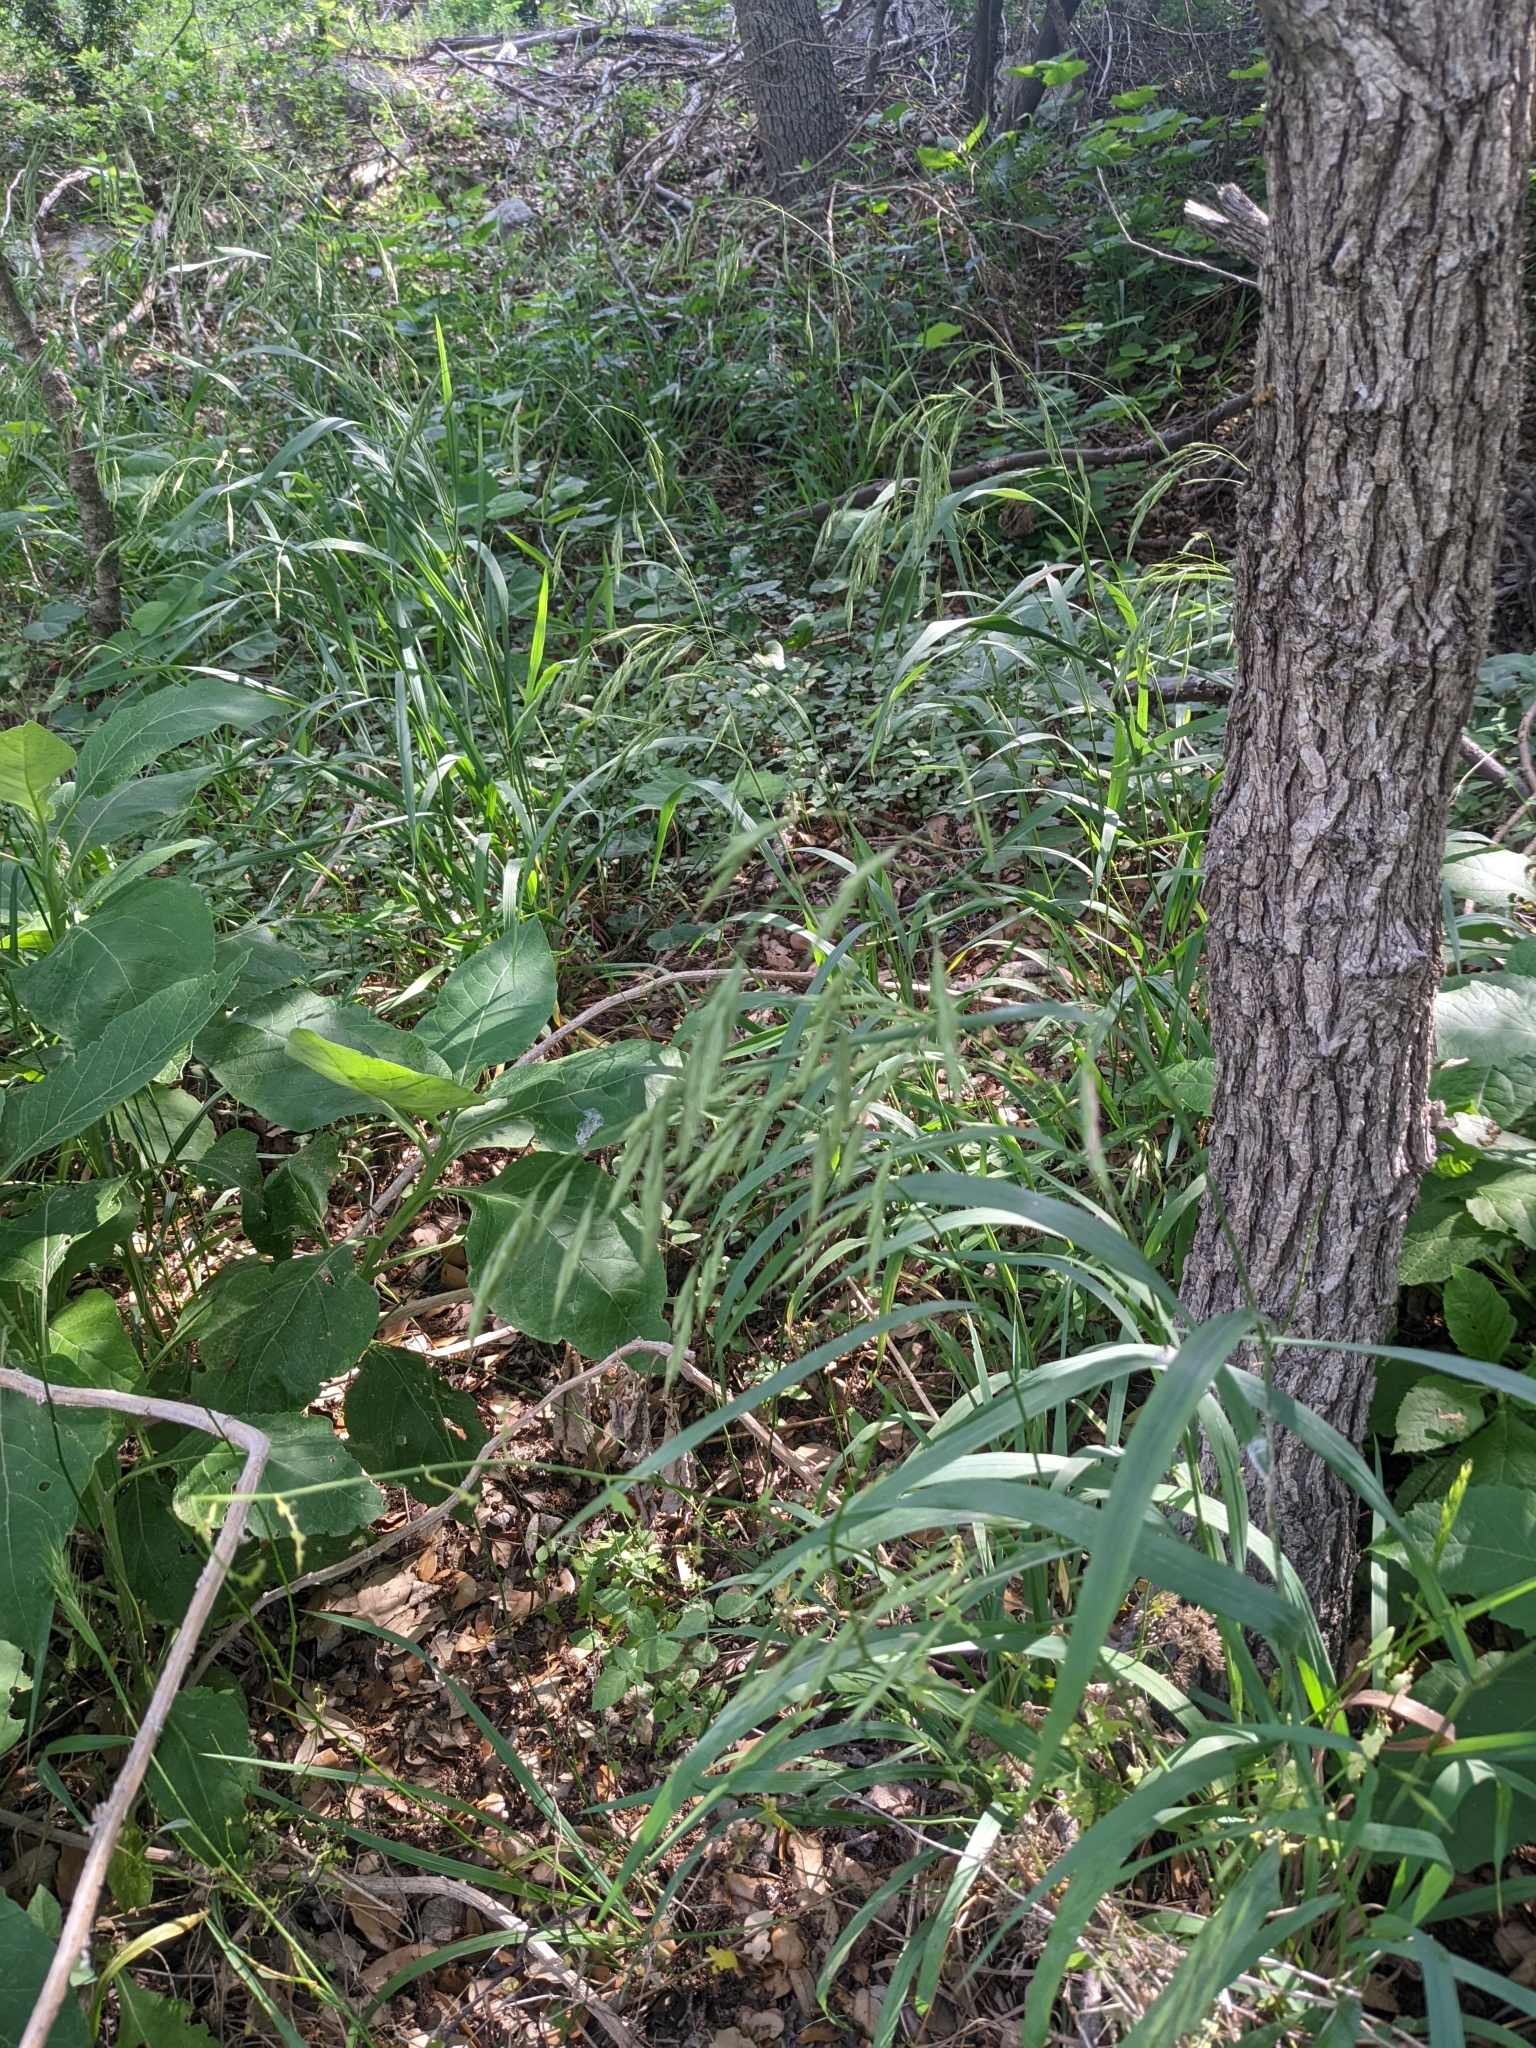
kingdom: Plantae
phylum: Tracheophyta
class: Liliopsida
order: Poales
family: Poaceae
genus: Bromus
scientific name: Bromus pubescens
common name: Hairy wood brome grass
